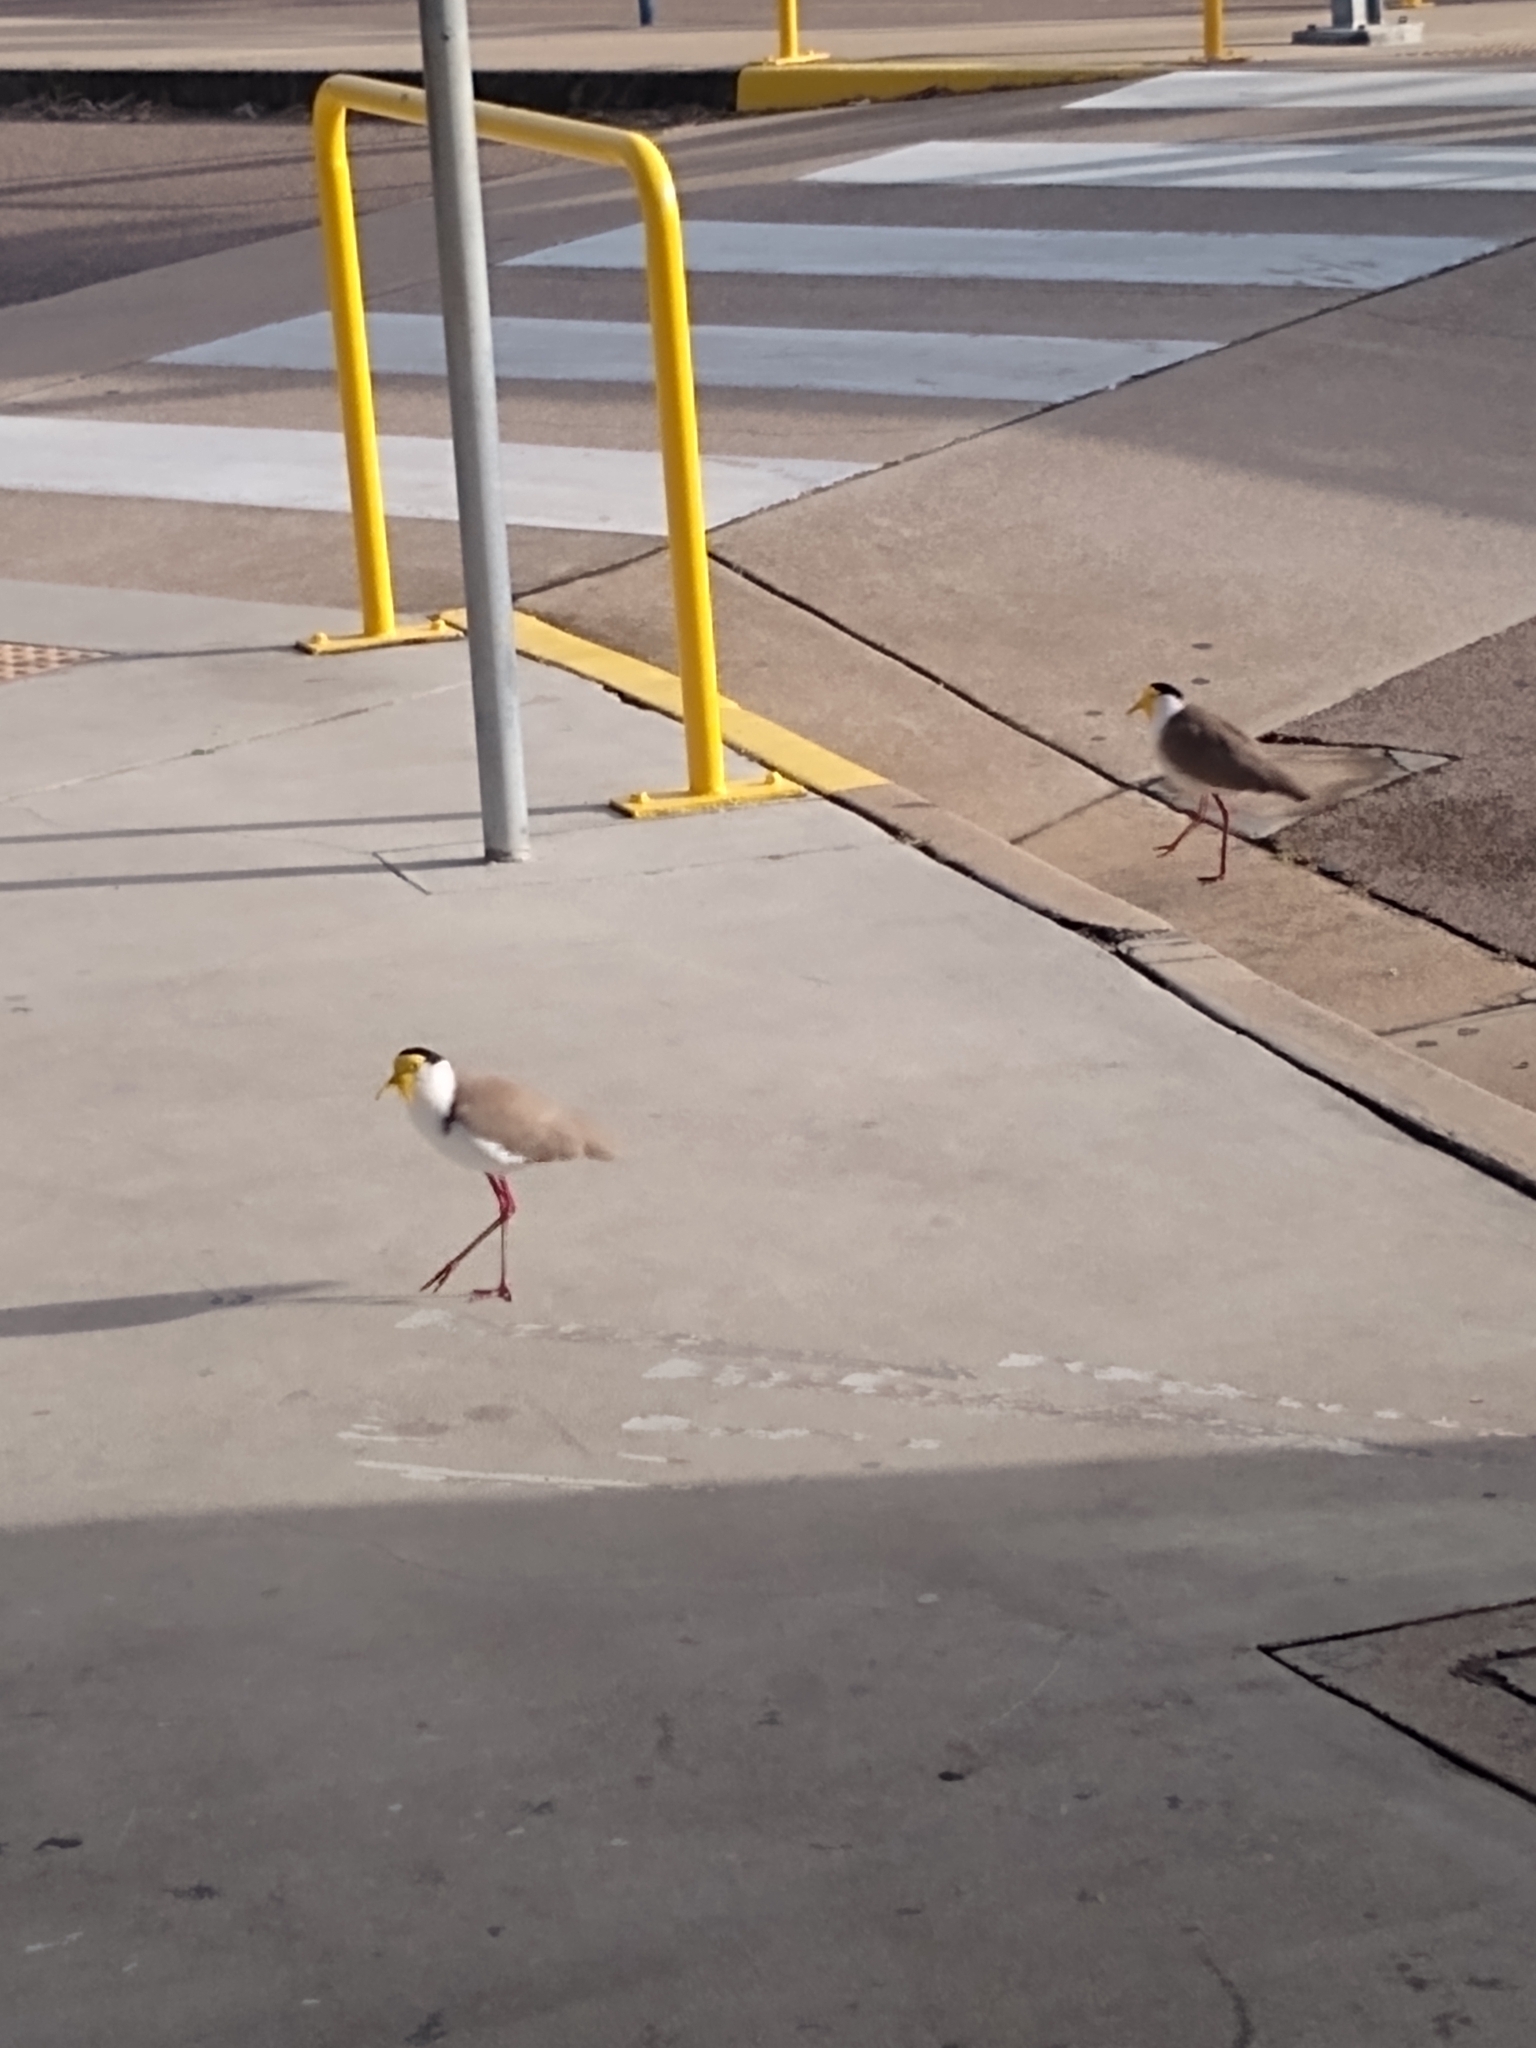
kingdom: Animalia
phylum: Chordata
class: Aves
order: Charadriiformes
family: Charadriidae
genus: Vanellus
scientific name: Vanellus miles
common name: Masked lapwing
